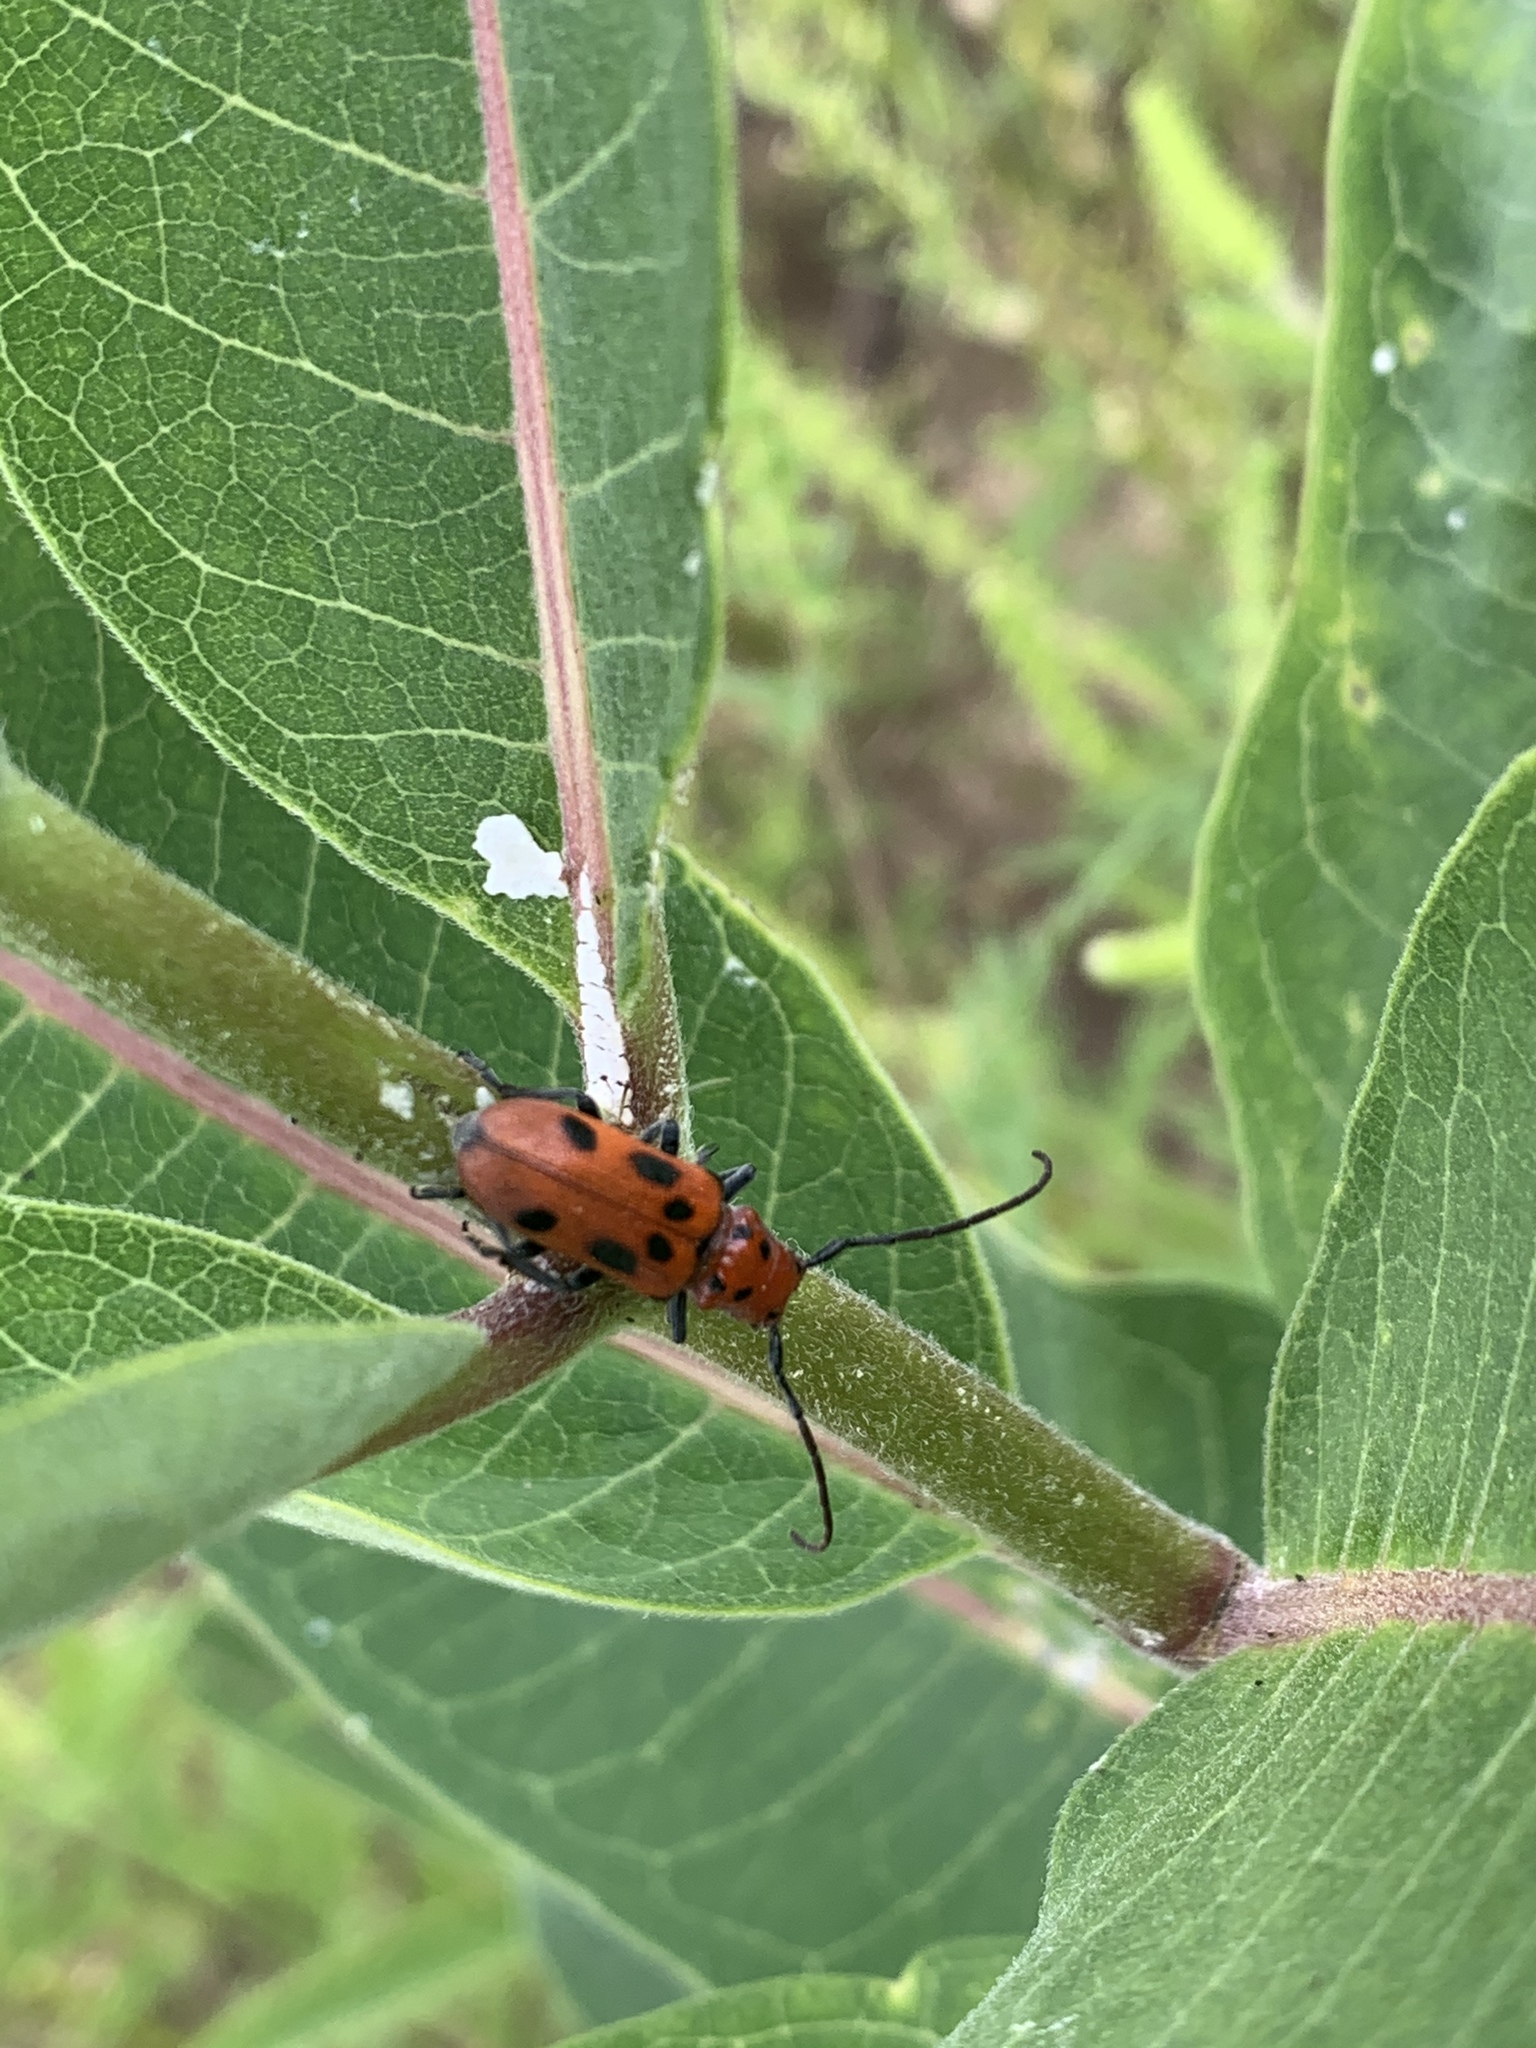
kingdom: Animalia
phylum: Arthropoda
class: Insecta
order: Coleoptera
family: Cerambycidae
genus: Tetraopes
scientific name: Tetraopes tetrophthalmus
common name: Red milkweed beetle
